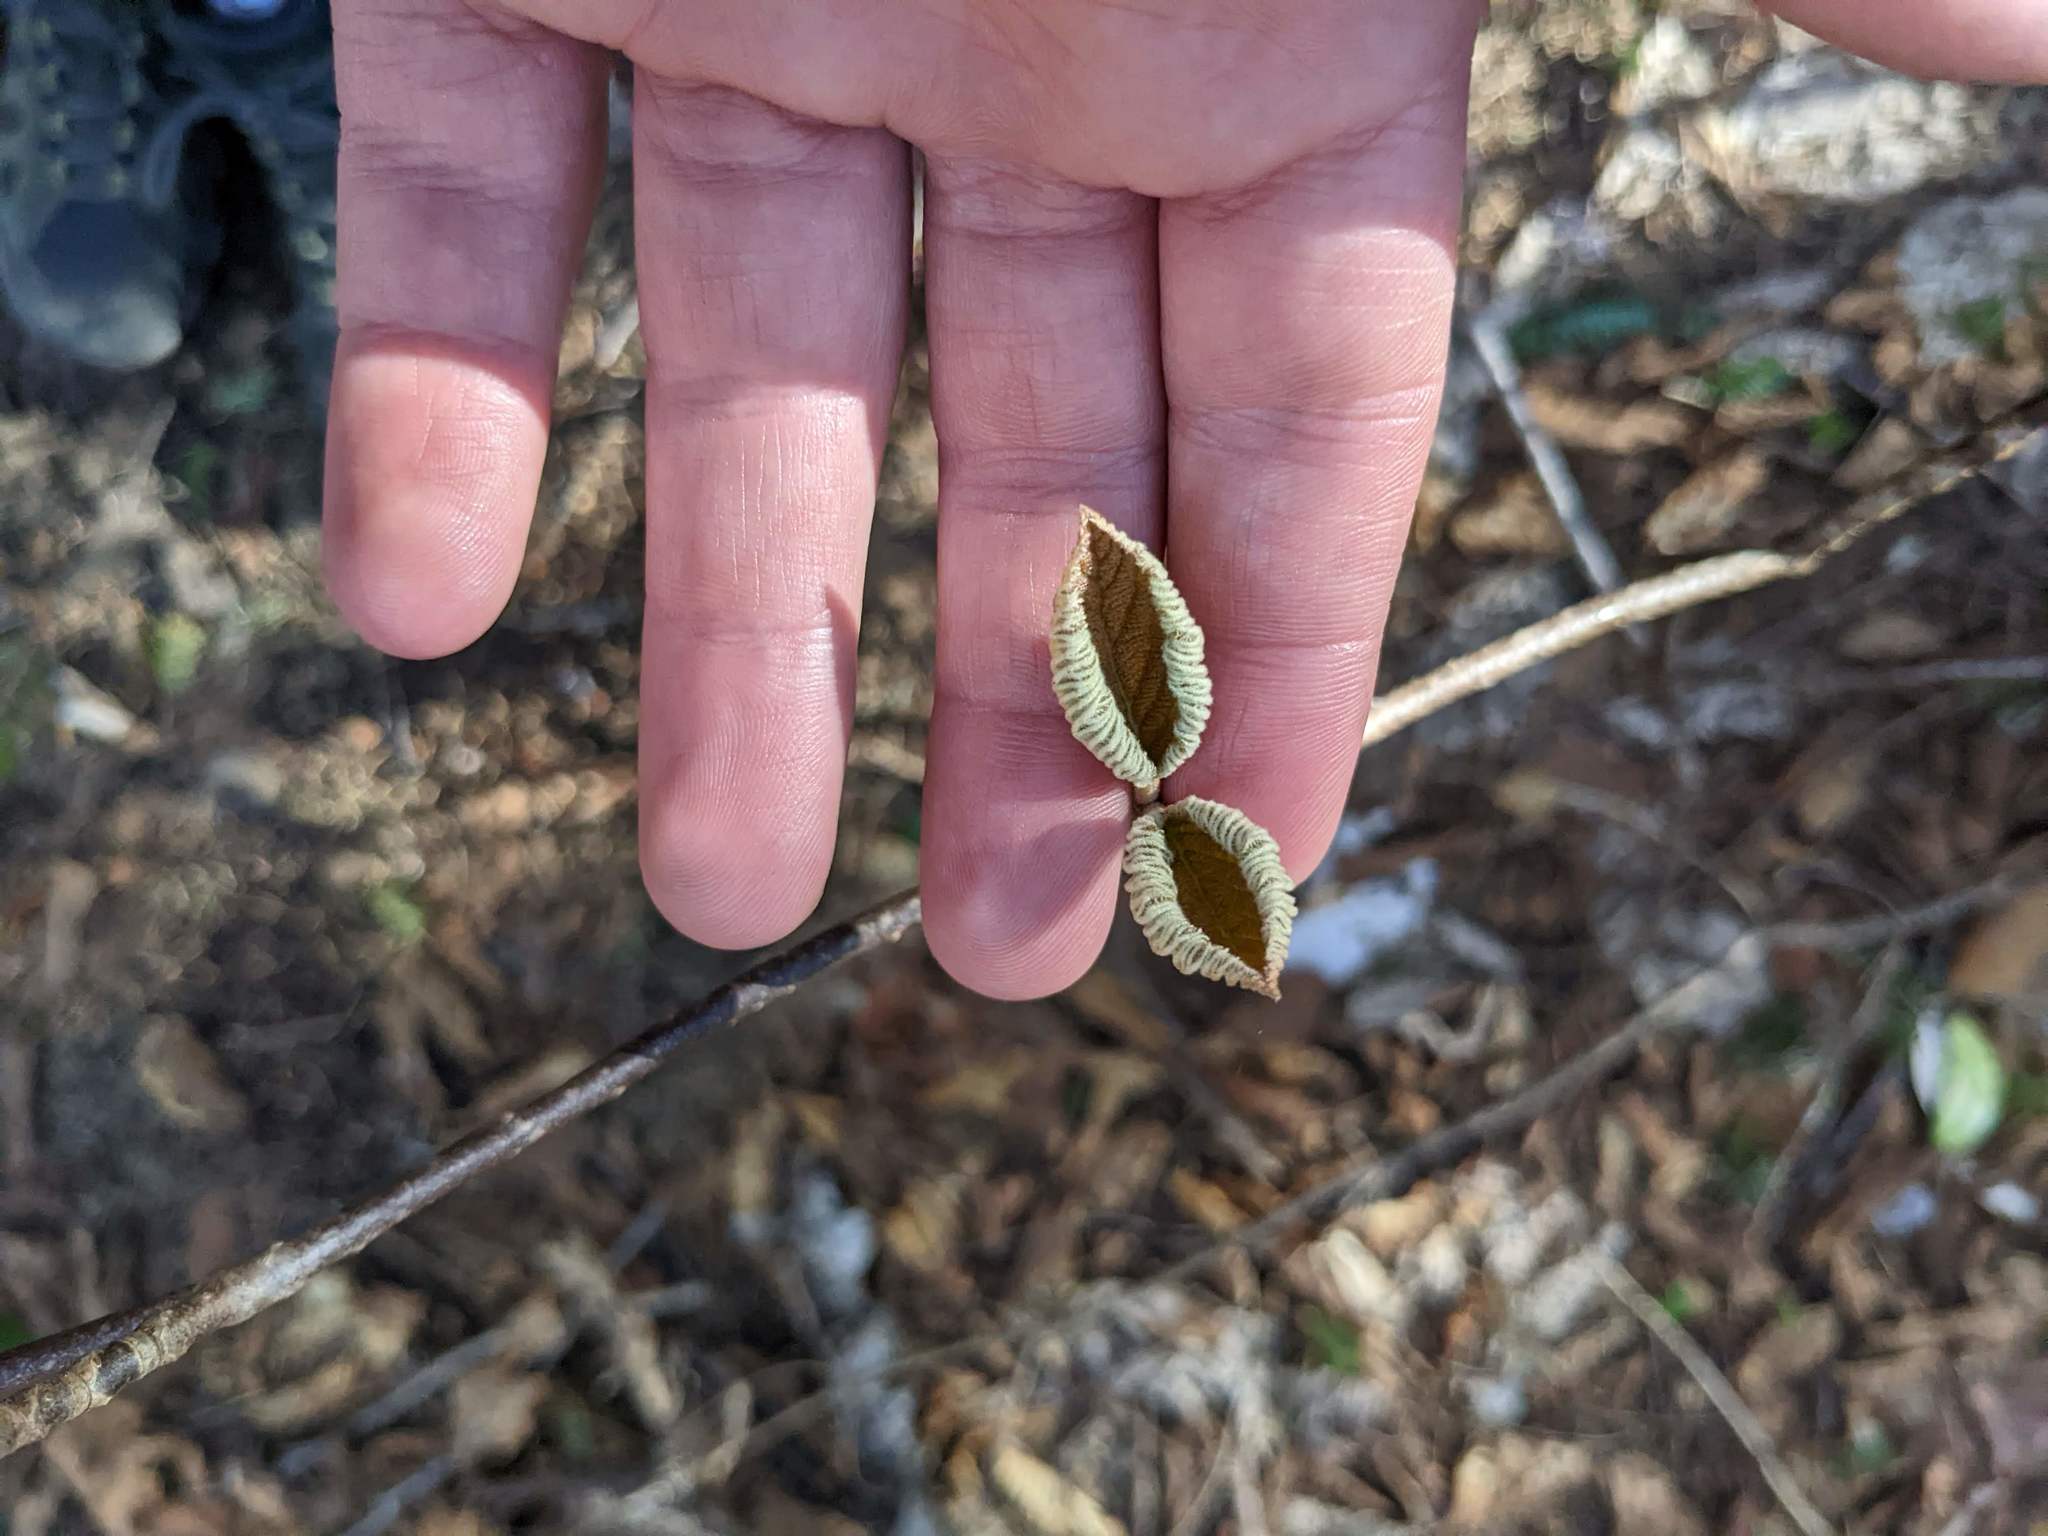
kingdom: Plantae
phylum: Tracheophyta
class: Magnoliopsida
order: Dipsacales
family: Viburnaceae
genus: Viburnum
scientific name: Viburnum lantanoides
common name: Hobblebush
